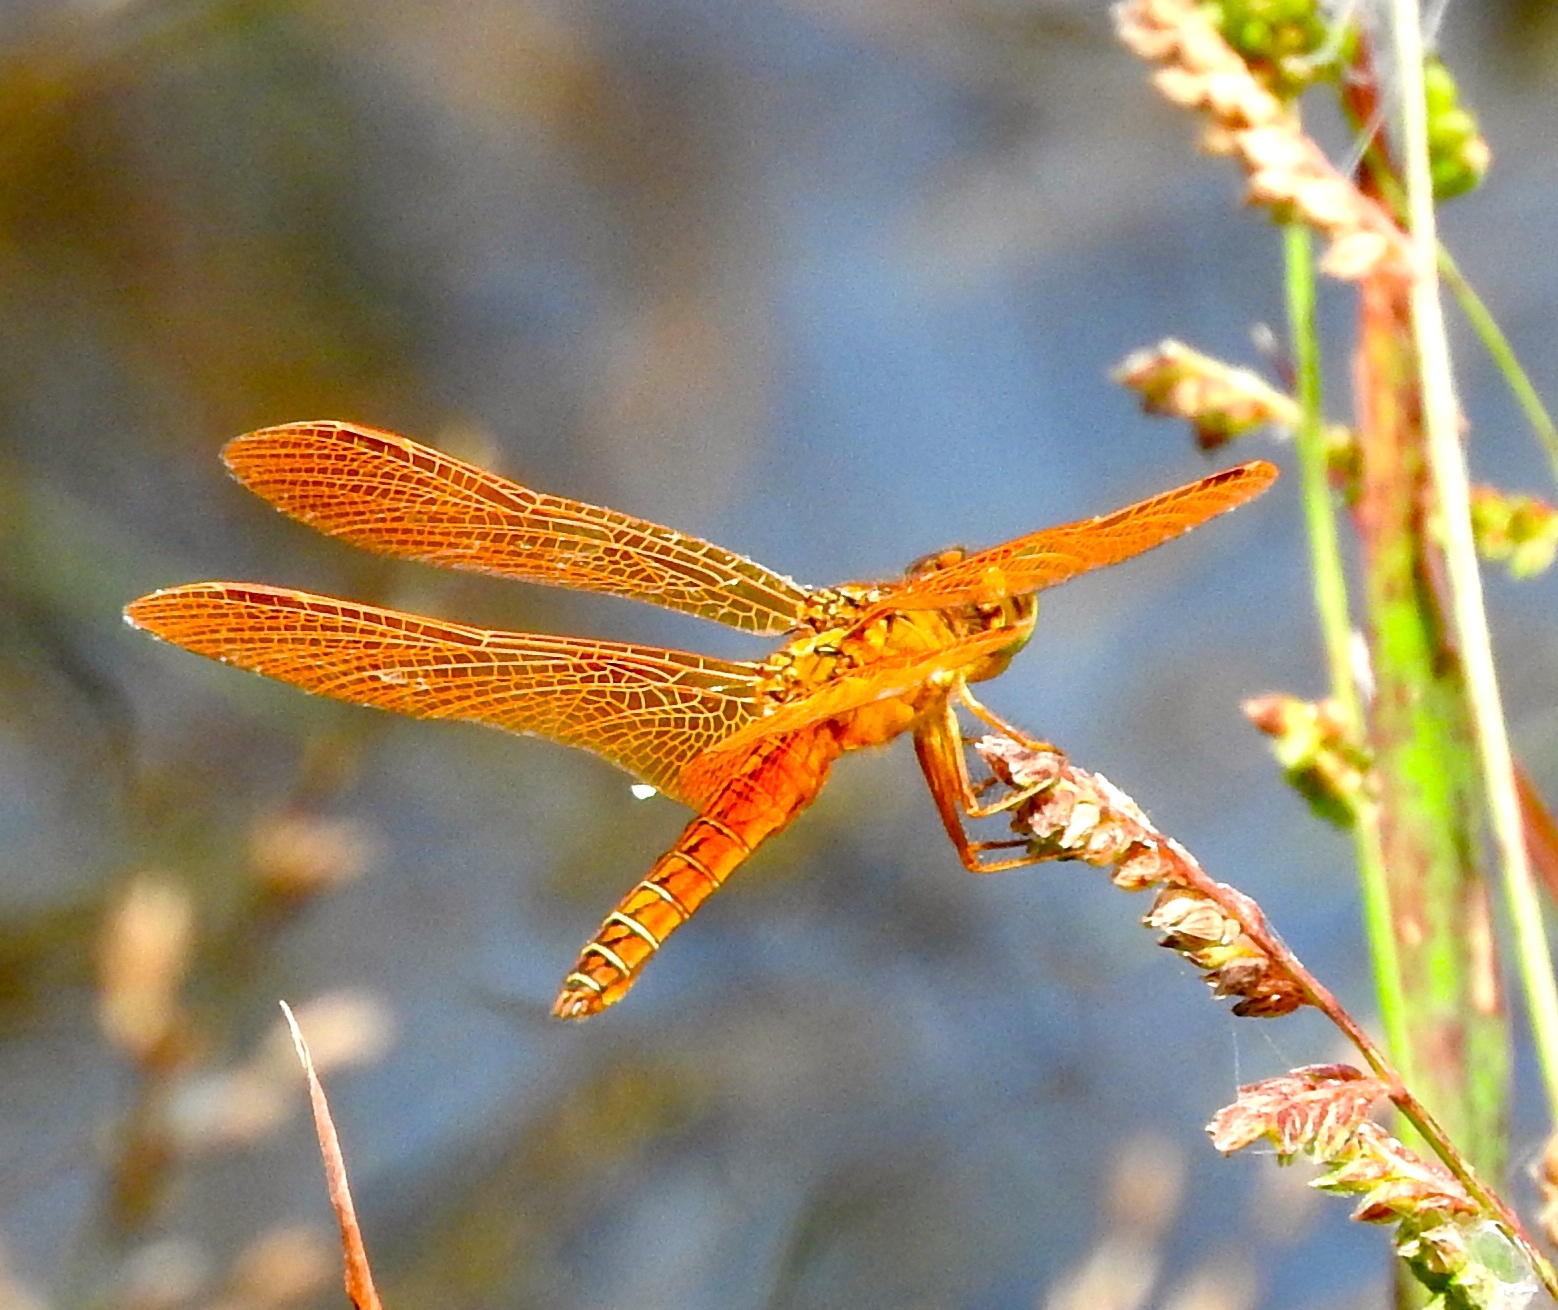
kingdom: Animalia
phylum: Arthropoda
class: Insecta
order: Odonata
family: Libellulidae
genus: Perithemis
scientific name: Perithemis intensa
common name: Mexican amberwing
